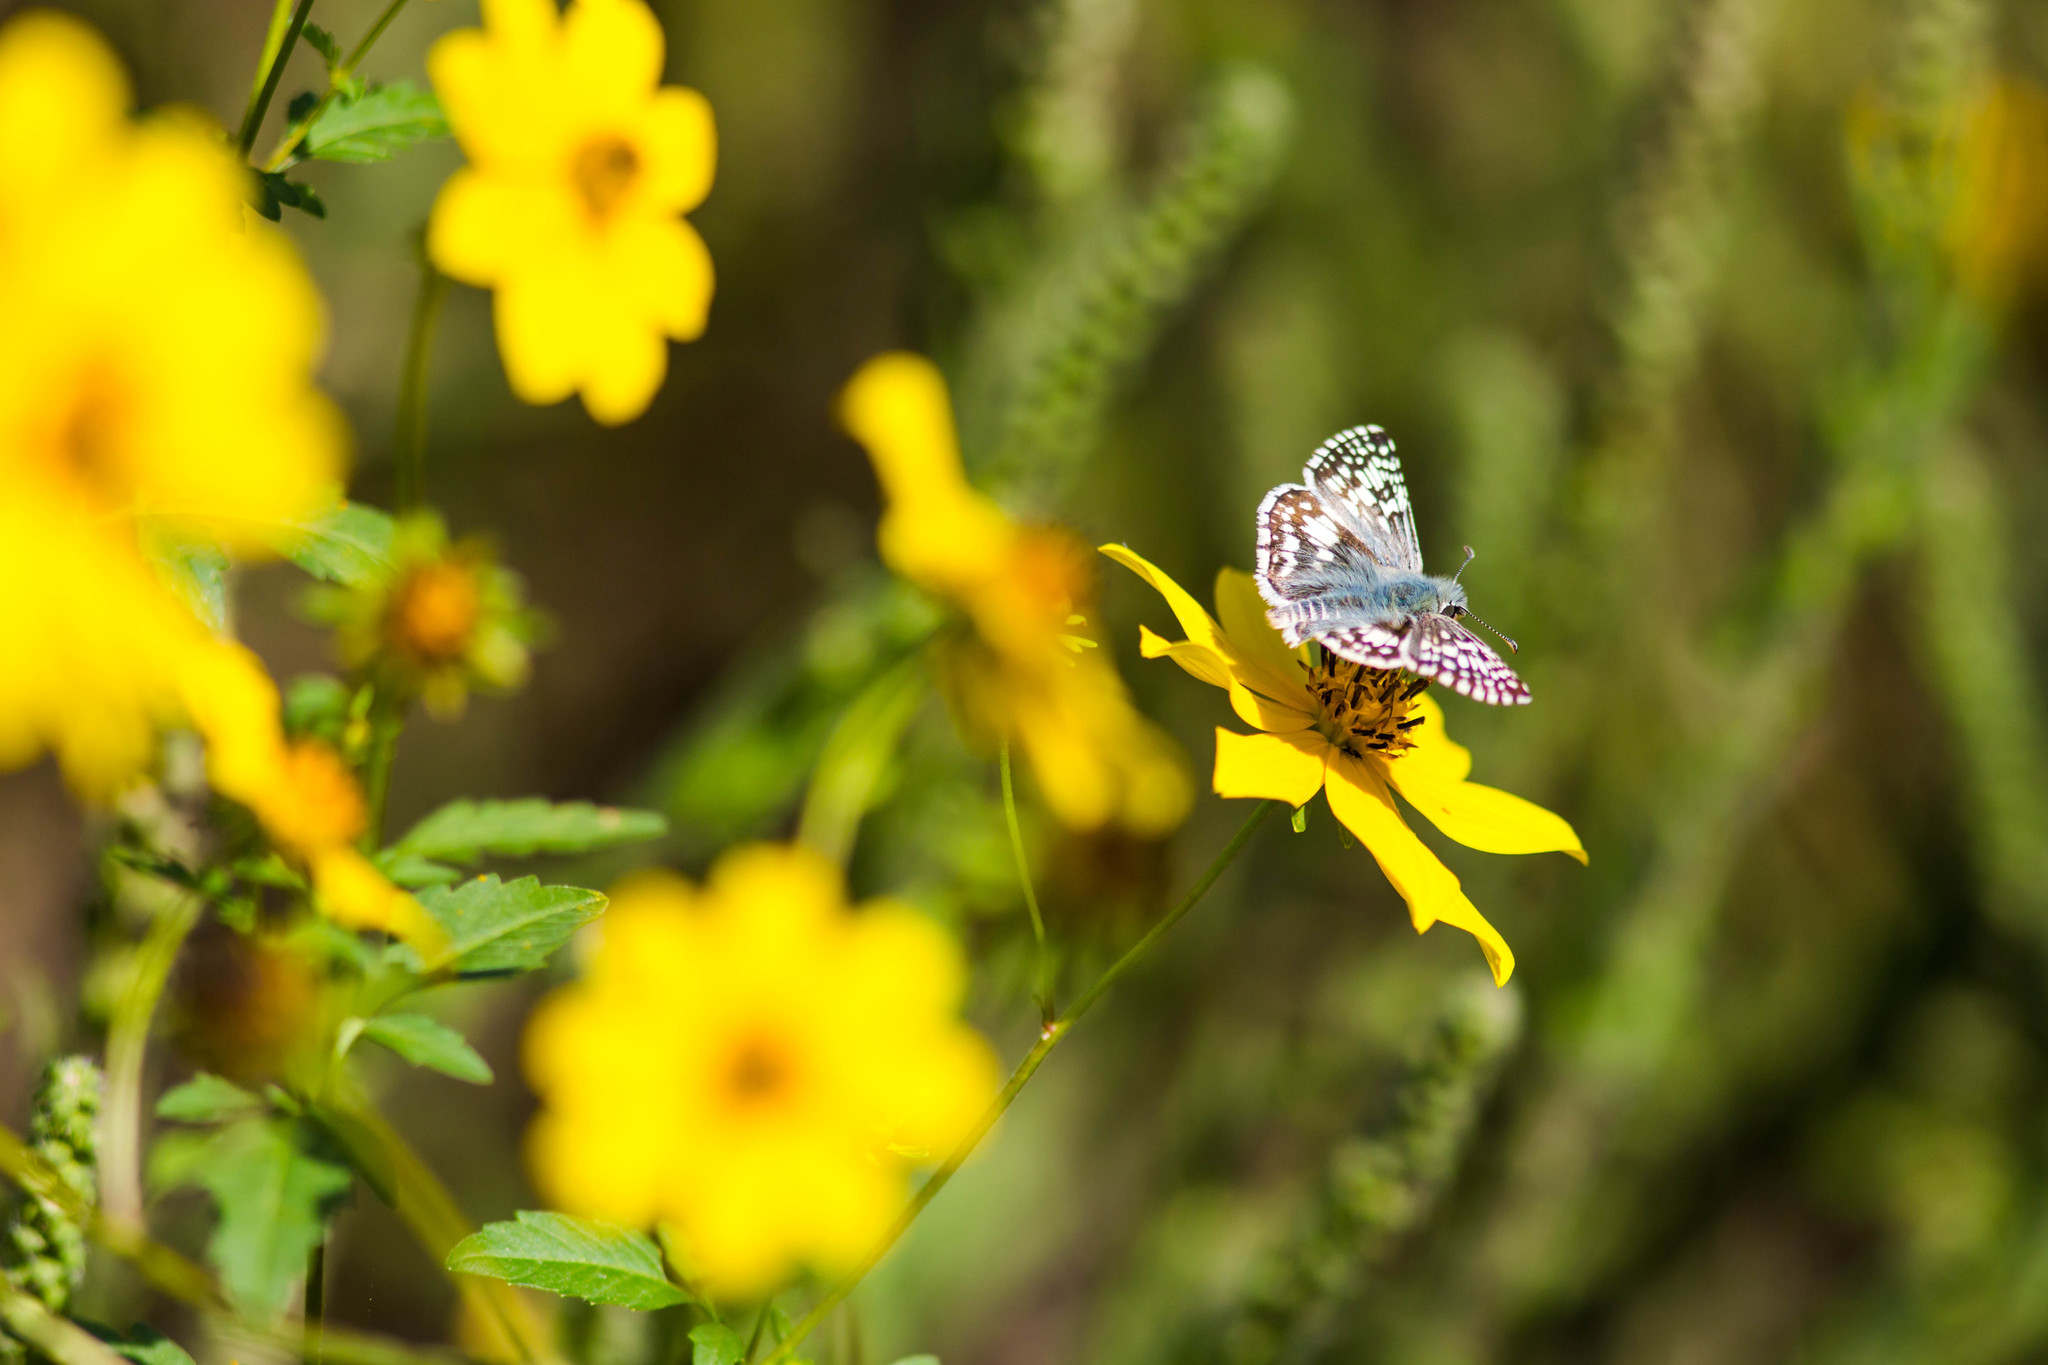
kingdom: Animalia
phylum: Arthropoda
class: Insecta
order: Lepidoptera
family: Hesperiidae
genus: Burnsius
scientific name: Burnsius communis
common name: Common checkered-skipper
